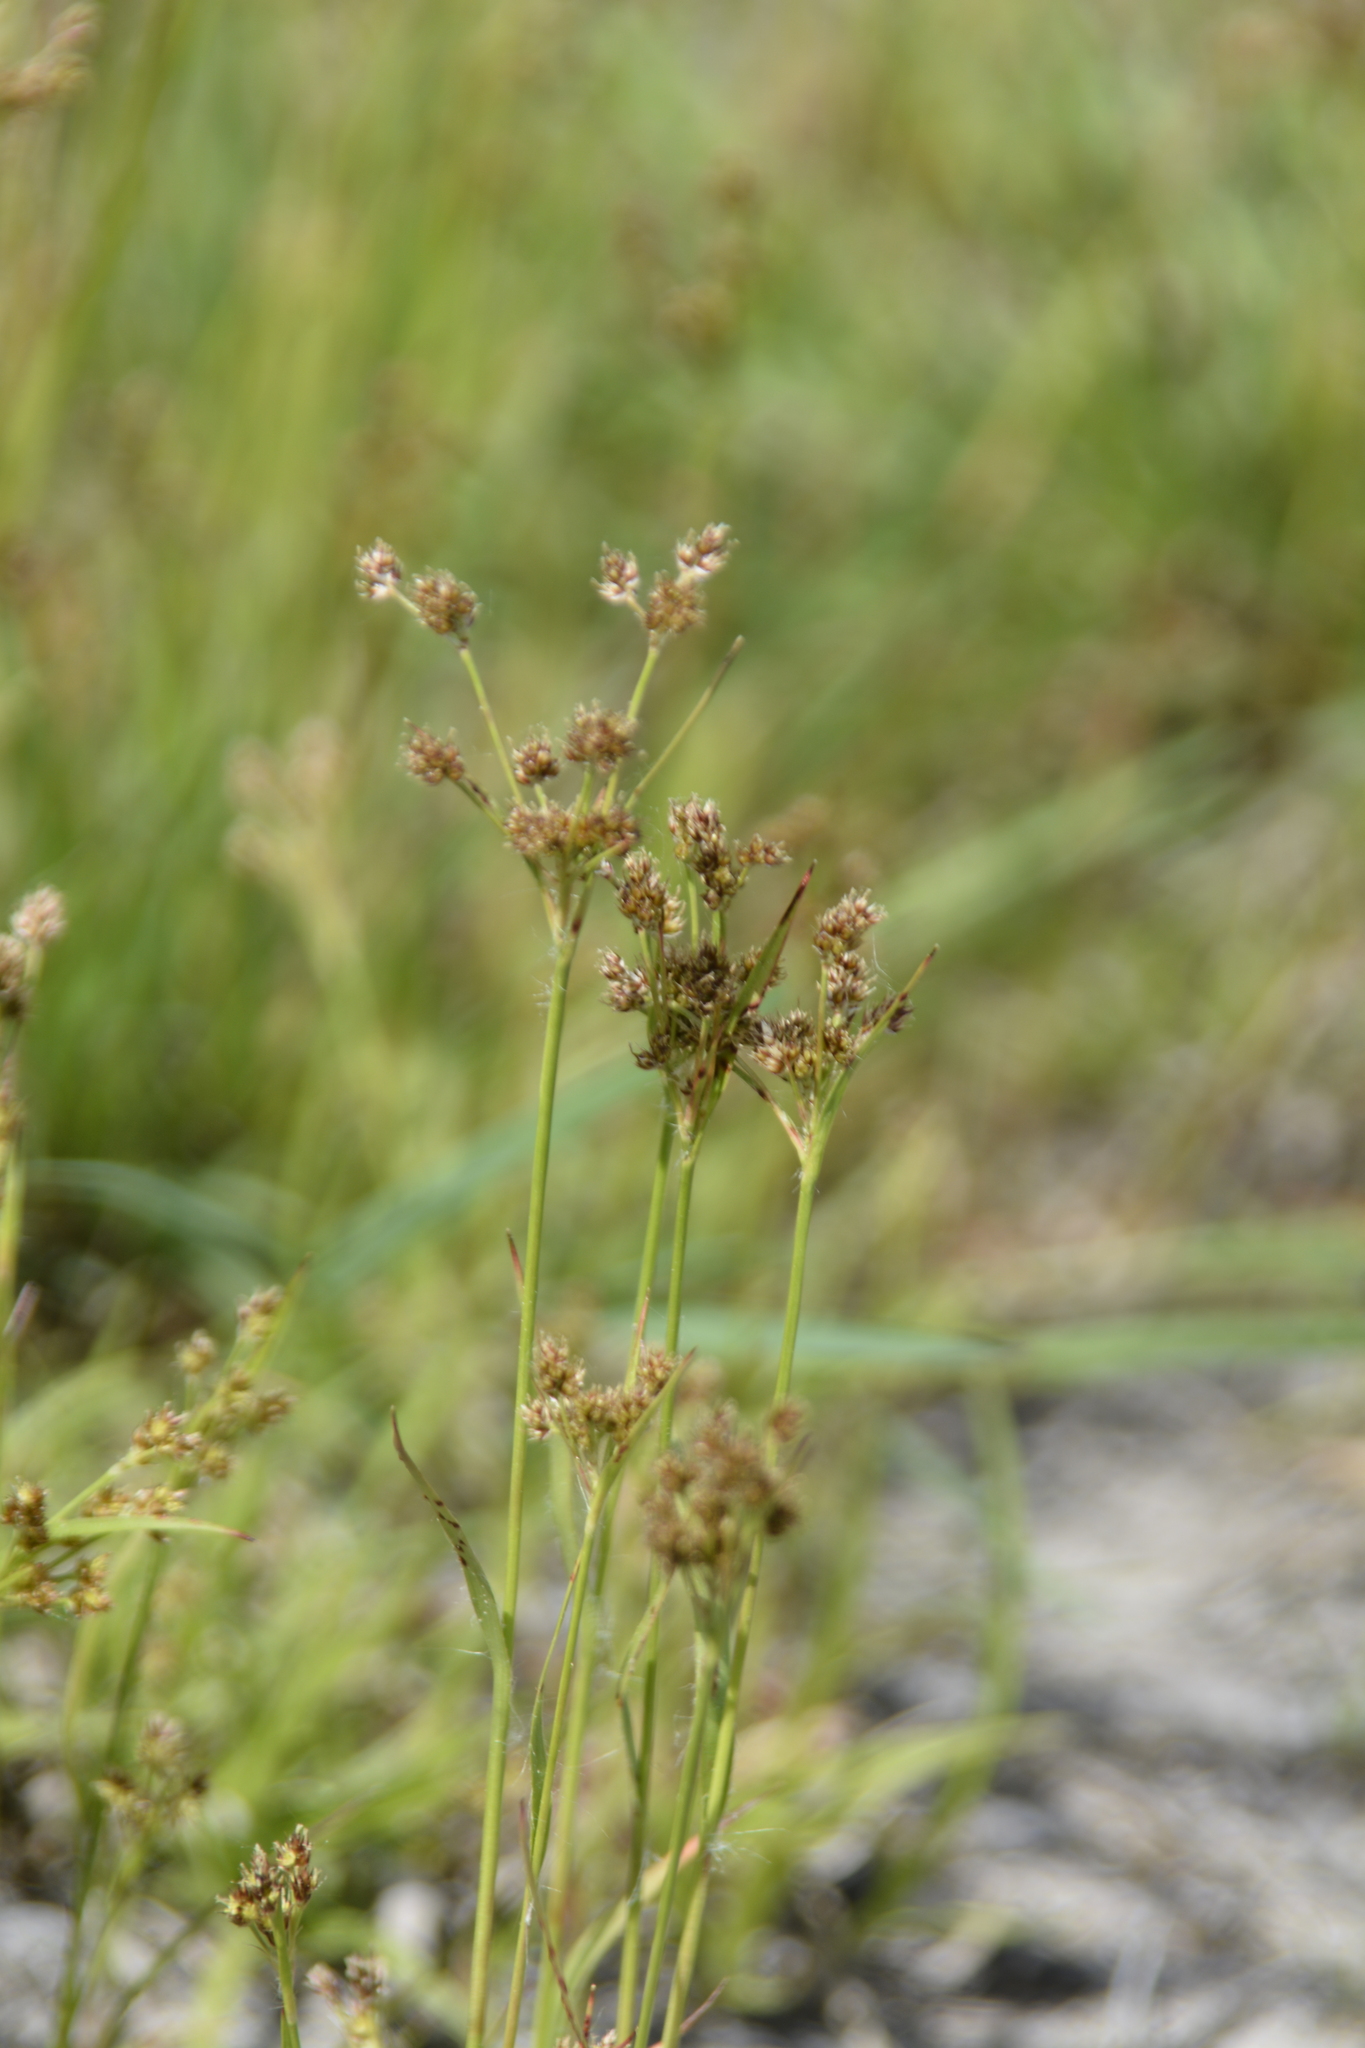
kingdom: Plantae
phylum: Tracheophyta
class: Liliopsida
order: Poales
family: Juncaceae
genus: Luzula
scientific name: Luzula pallescens
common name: Fen wood-rush
